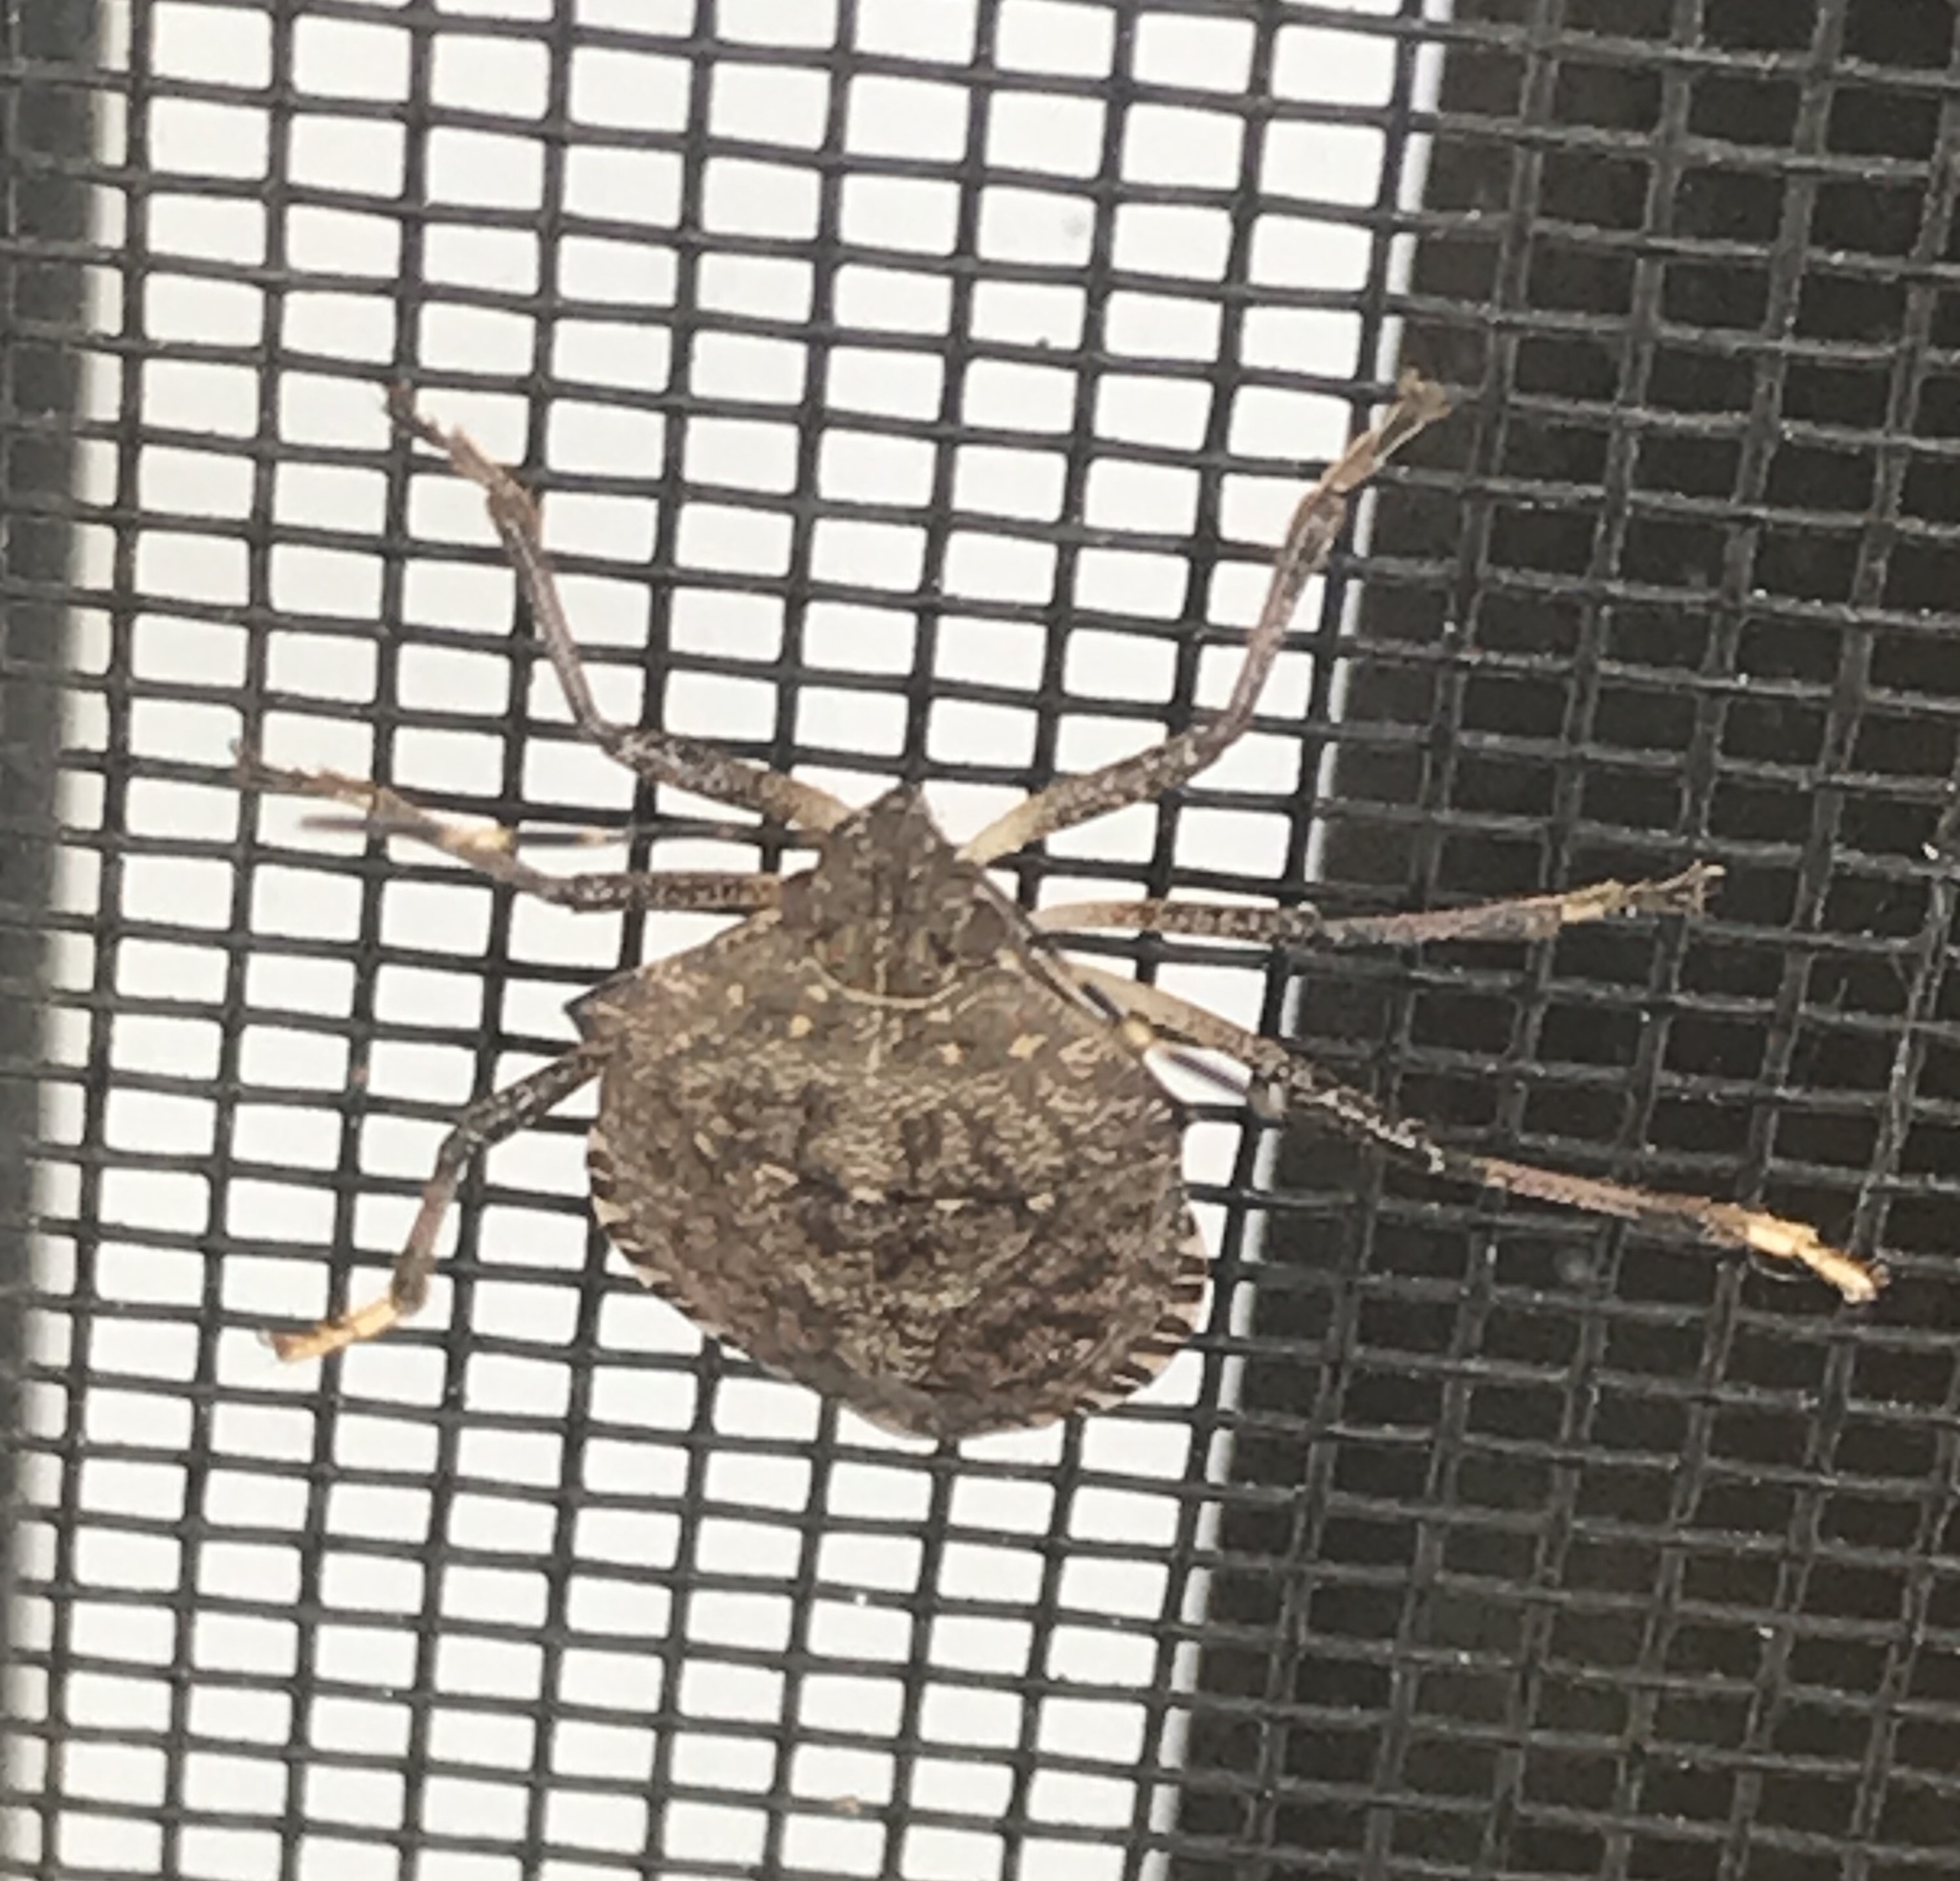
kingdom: Animalia
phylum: Arthropoda
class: Insecta
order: Hemiptera
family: Pentatomidae
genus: Halyomorpha
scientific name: Halyomorpha halys
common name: Brown marmorated stink bug
